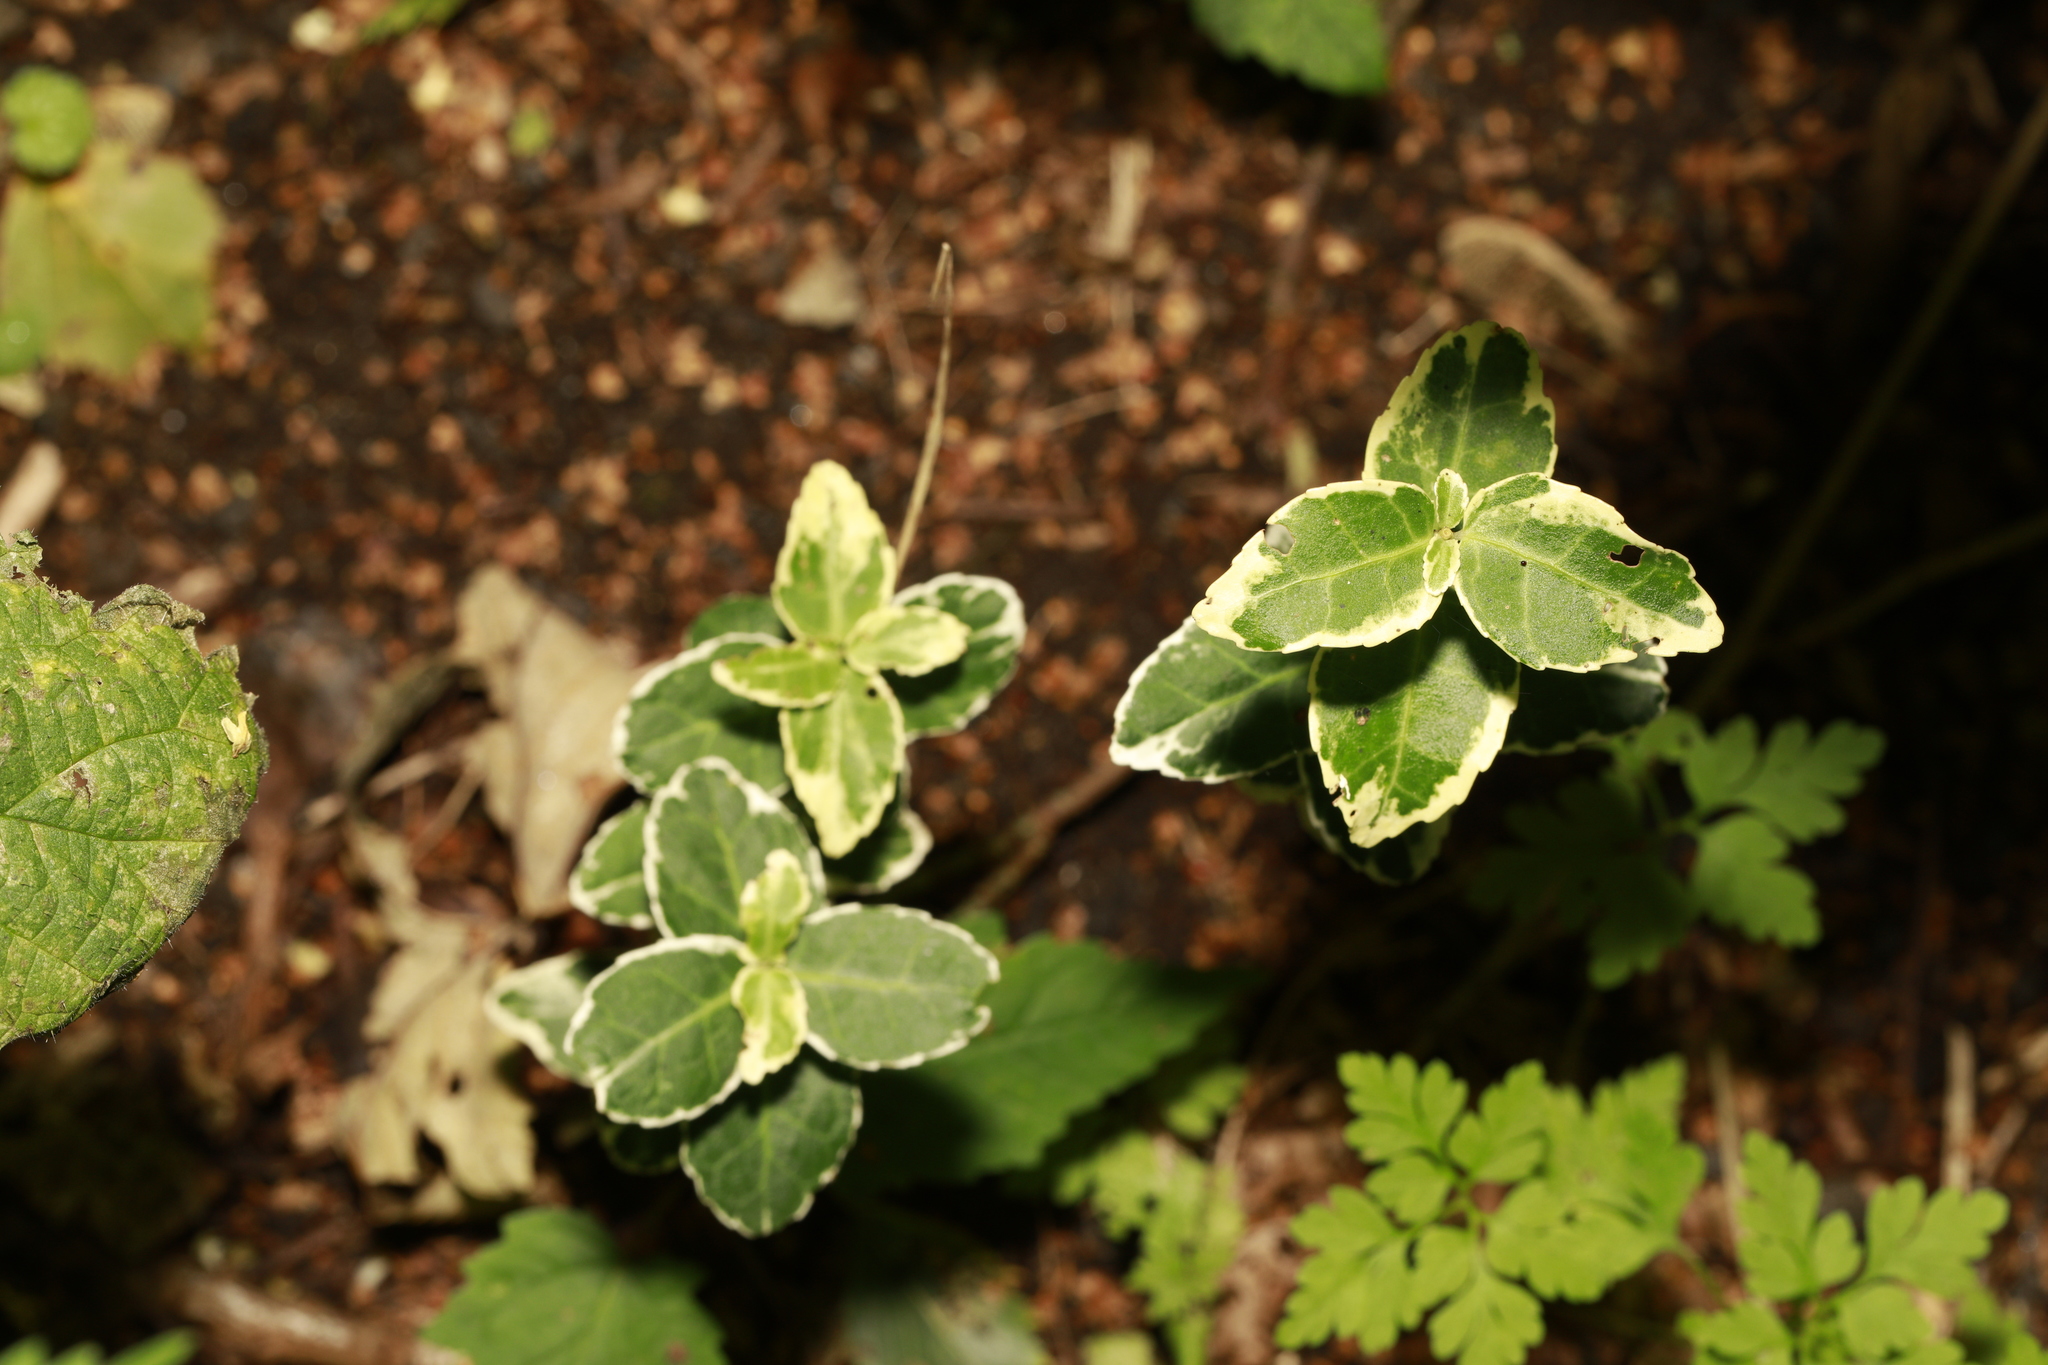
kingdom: Plantae
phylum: Tracheophyta
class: Magnoliopsida
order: Celastrales
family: Celastraceae
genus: Euonymus
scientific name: Euonymus japonicus
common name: Japanese spindletree
